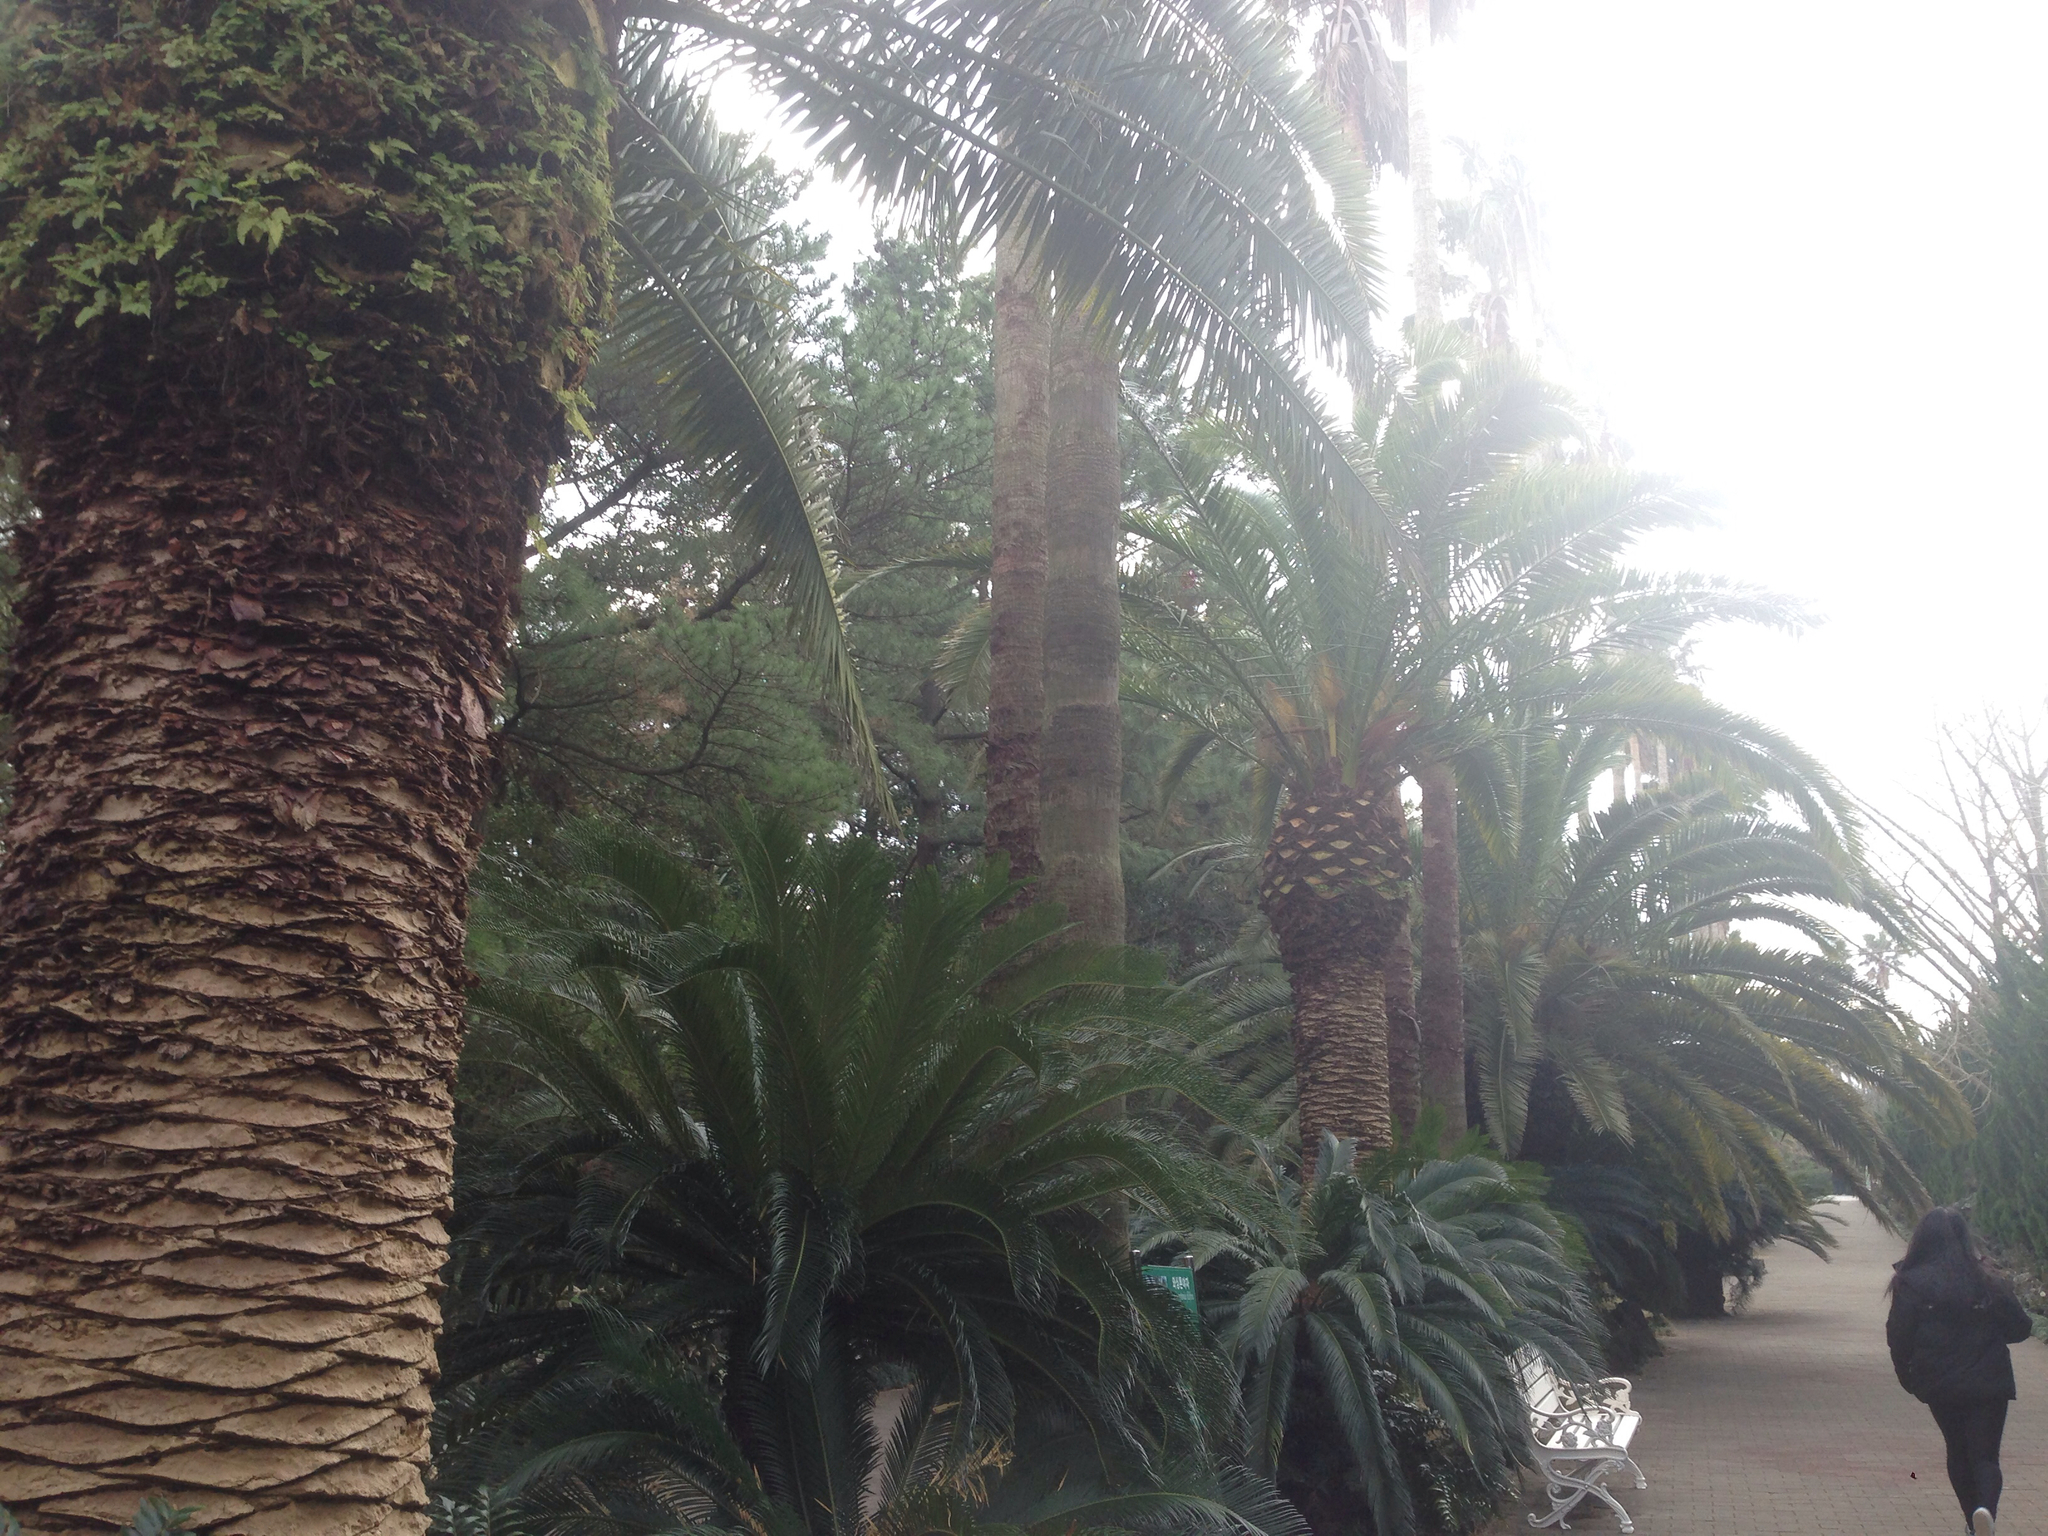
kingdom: Plantae
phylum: Tracheophyta
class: Liliopsida
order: Arecales
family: Arecaceae
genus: Phoenix
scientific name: Phoenix canariensis
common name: Canary island date palm
